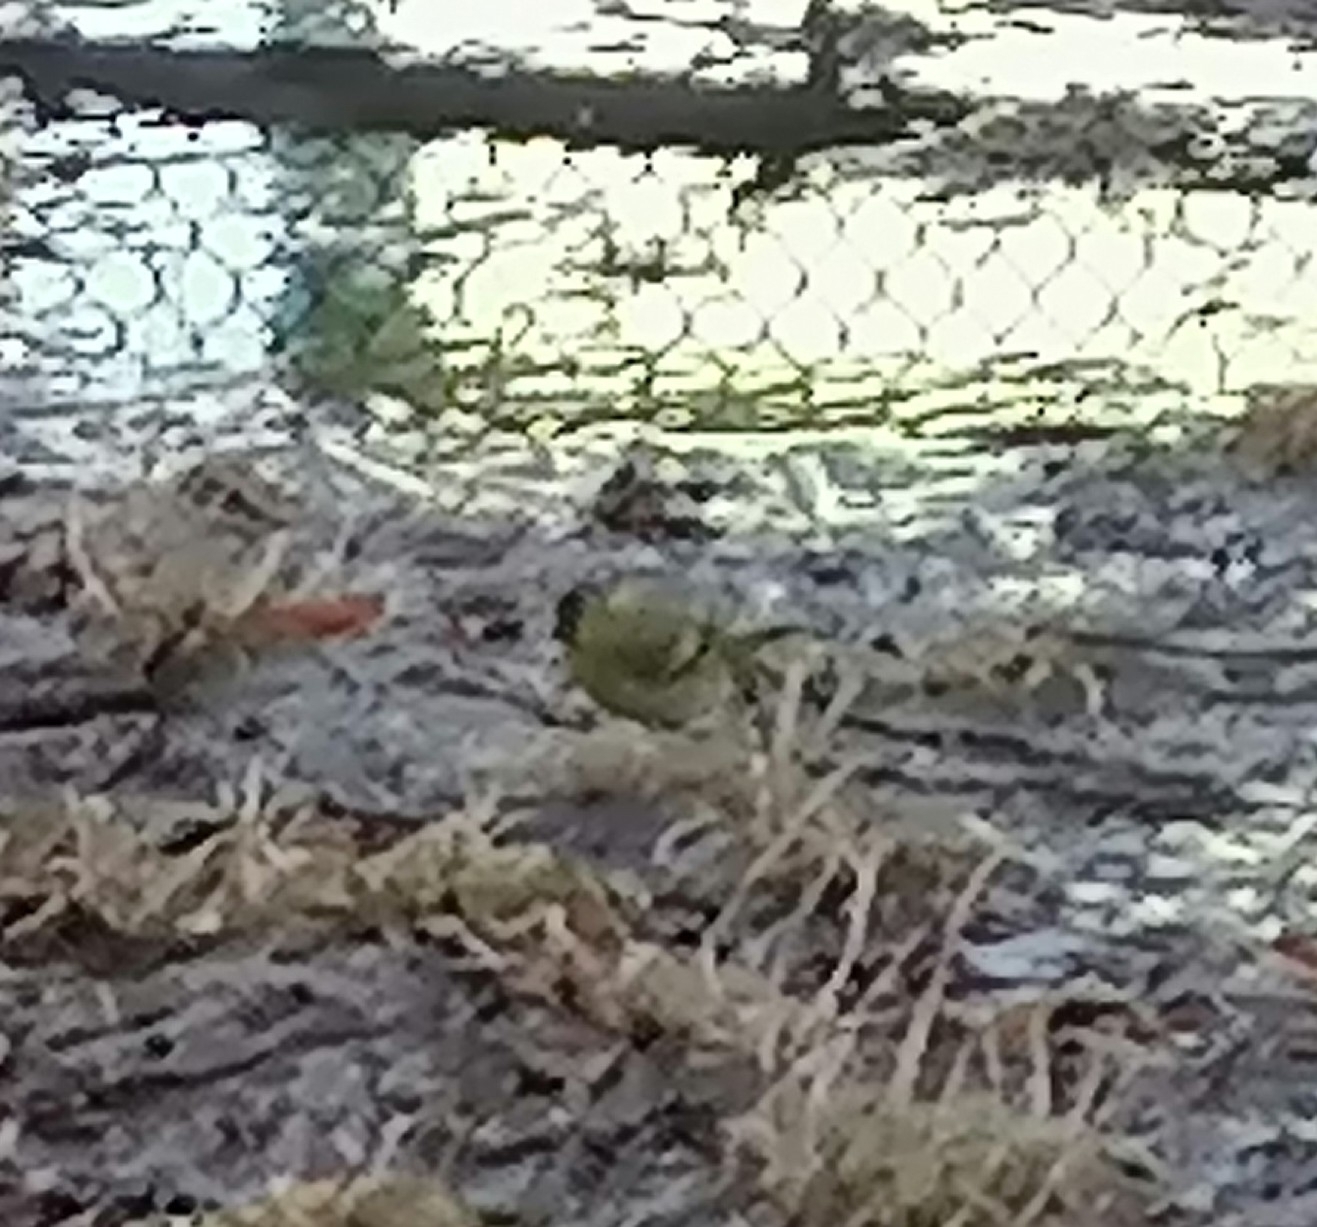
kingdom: Animalia
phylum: Chordata
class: Aves
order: Passeriformes
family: Fringillidae
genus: Spinus
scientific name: Spinus spinus
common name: Eurasian siskin
